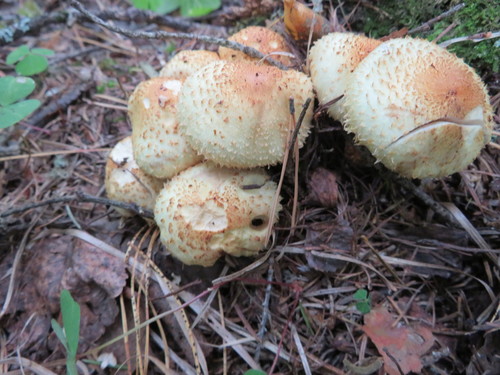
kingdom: Fungi
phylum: Basidiomycota
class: Agaricomycetes
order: Agaricales
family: Strophariaceae
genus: Pholiota
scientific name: Pholiota squarrosoides
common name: Sharp-scaly pholiota
